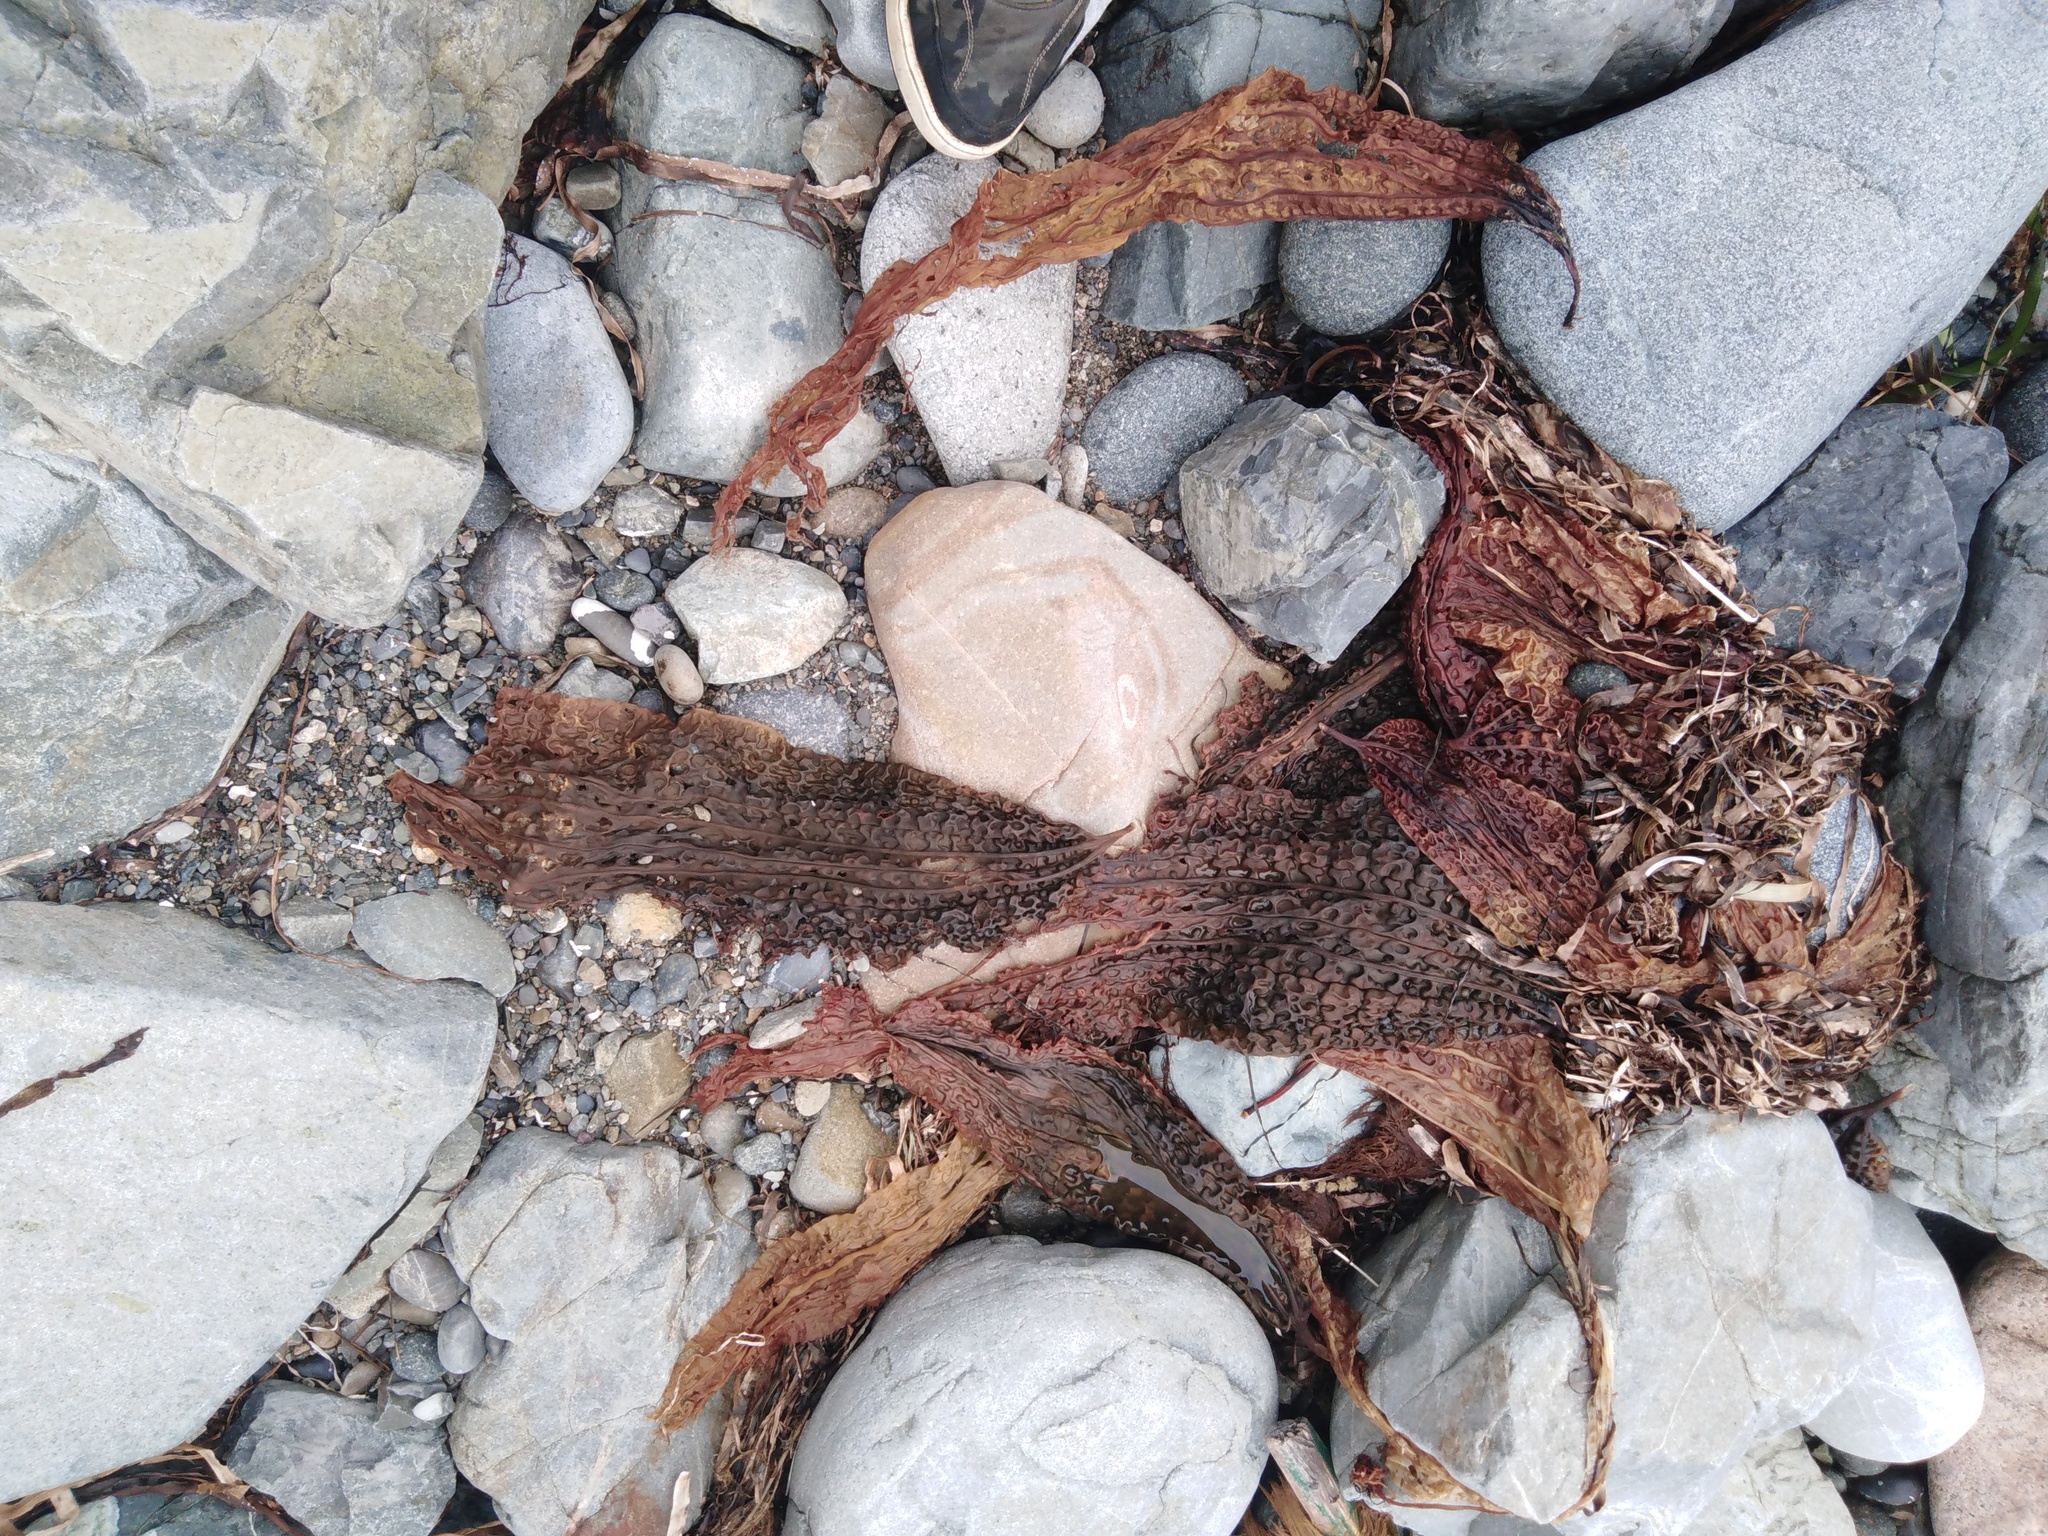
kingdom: Chromista
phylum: Ochrophyta
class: Phaeophyceae
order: Laminariales
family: Costariaceae
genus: Costaria
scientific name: Costaria costata
